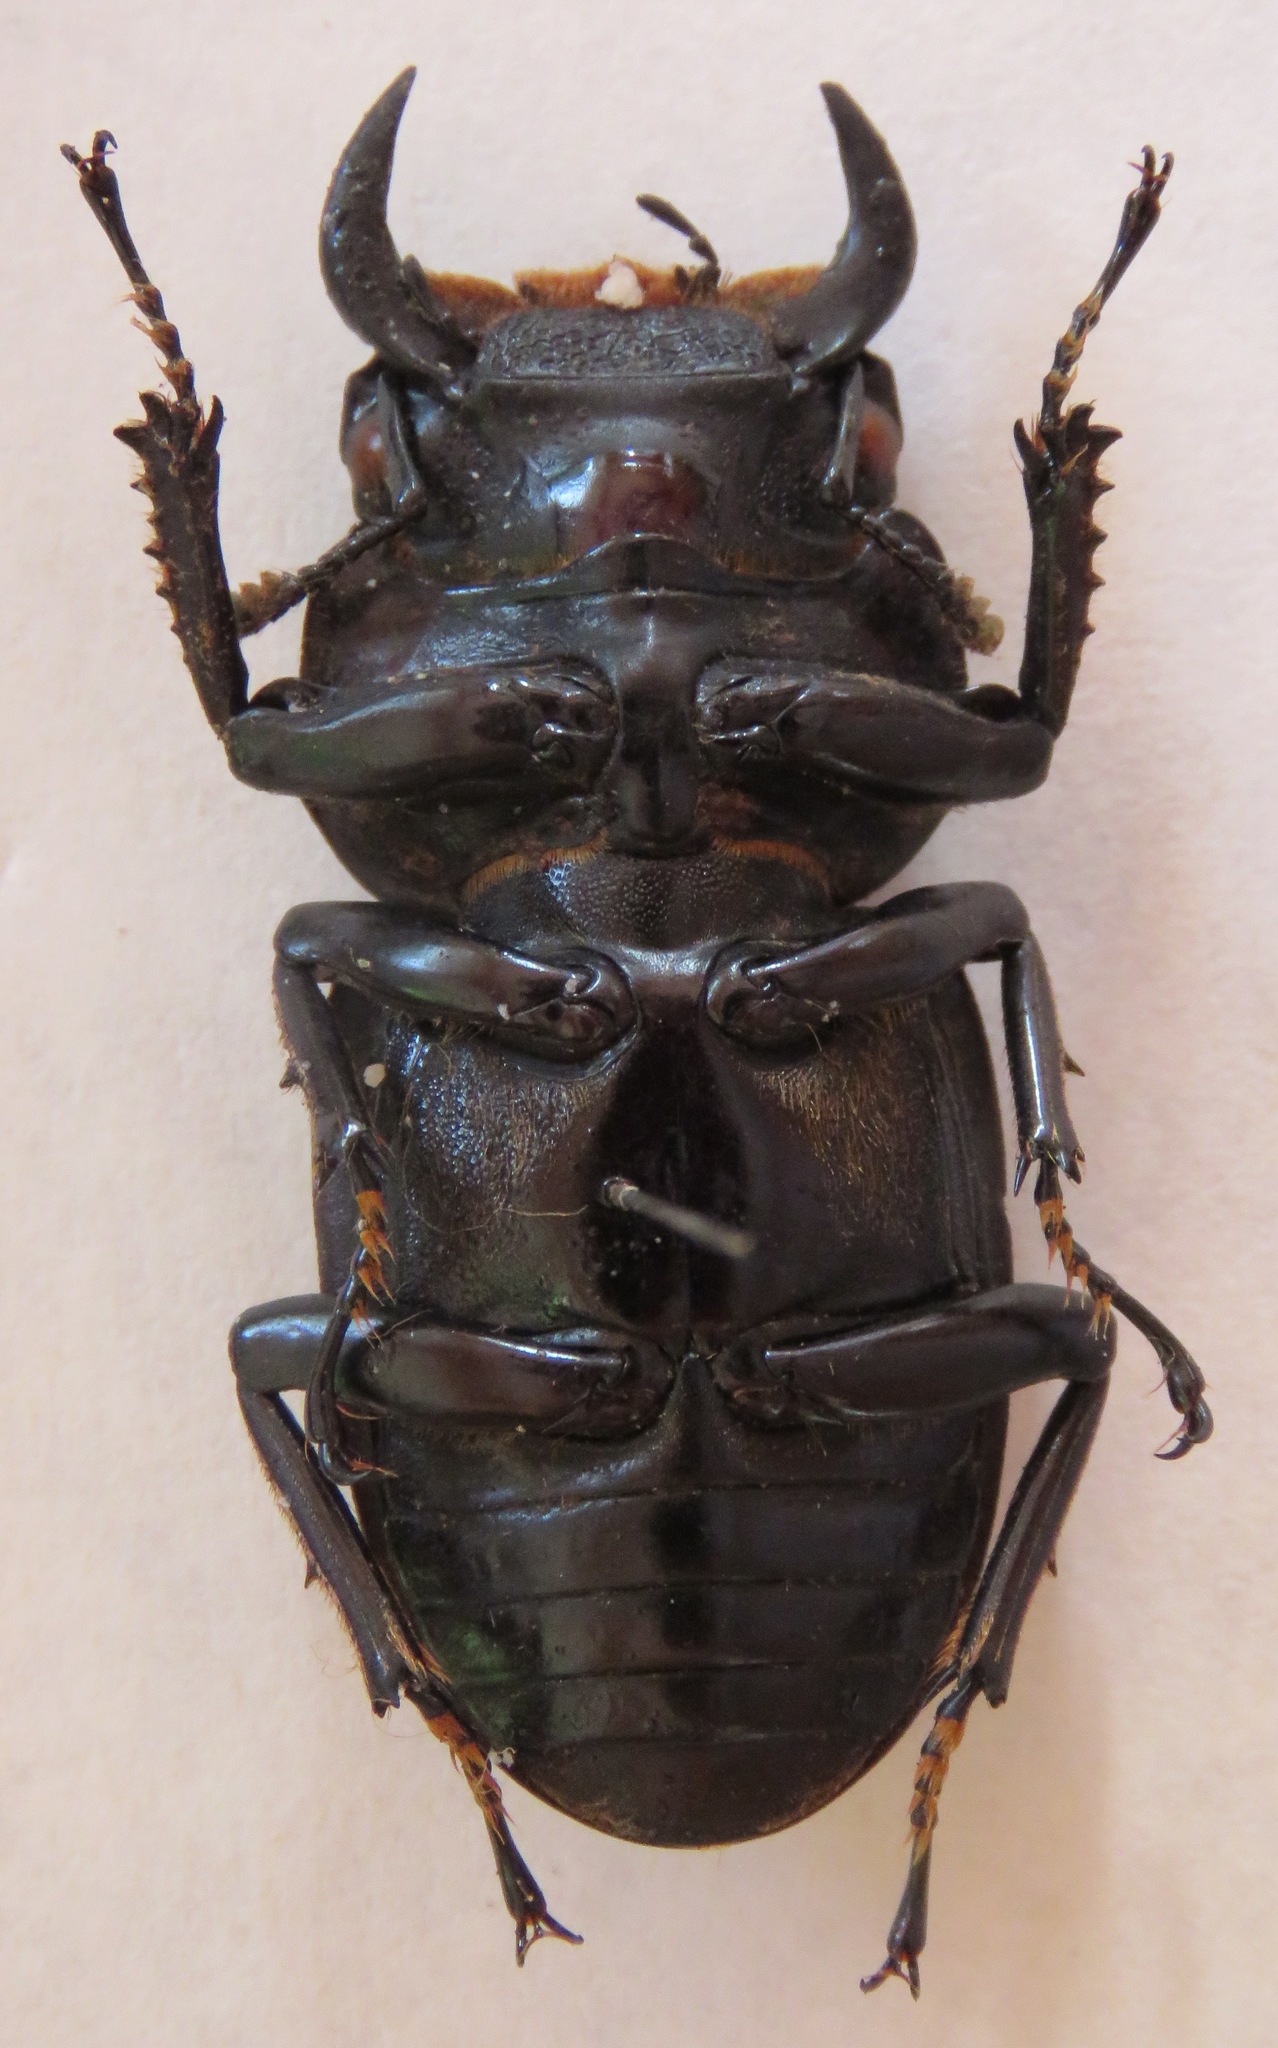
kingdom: Animalia
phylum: Arthropoda
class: Insecta
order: Coleoptera
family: Lucanidae
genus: Dorcus
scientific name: Dorcus antaeus
